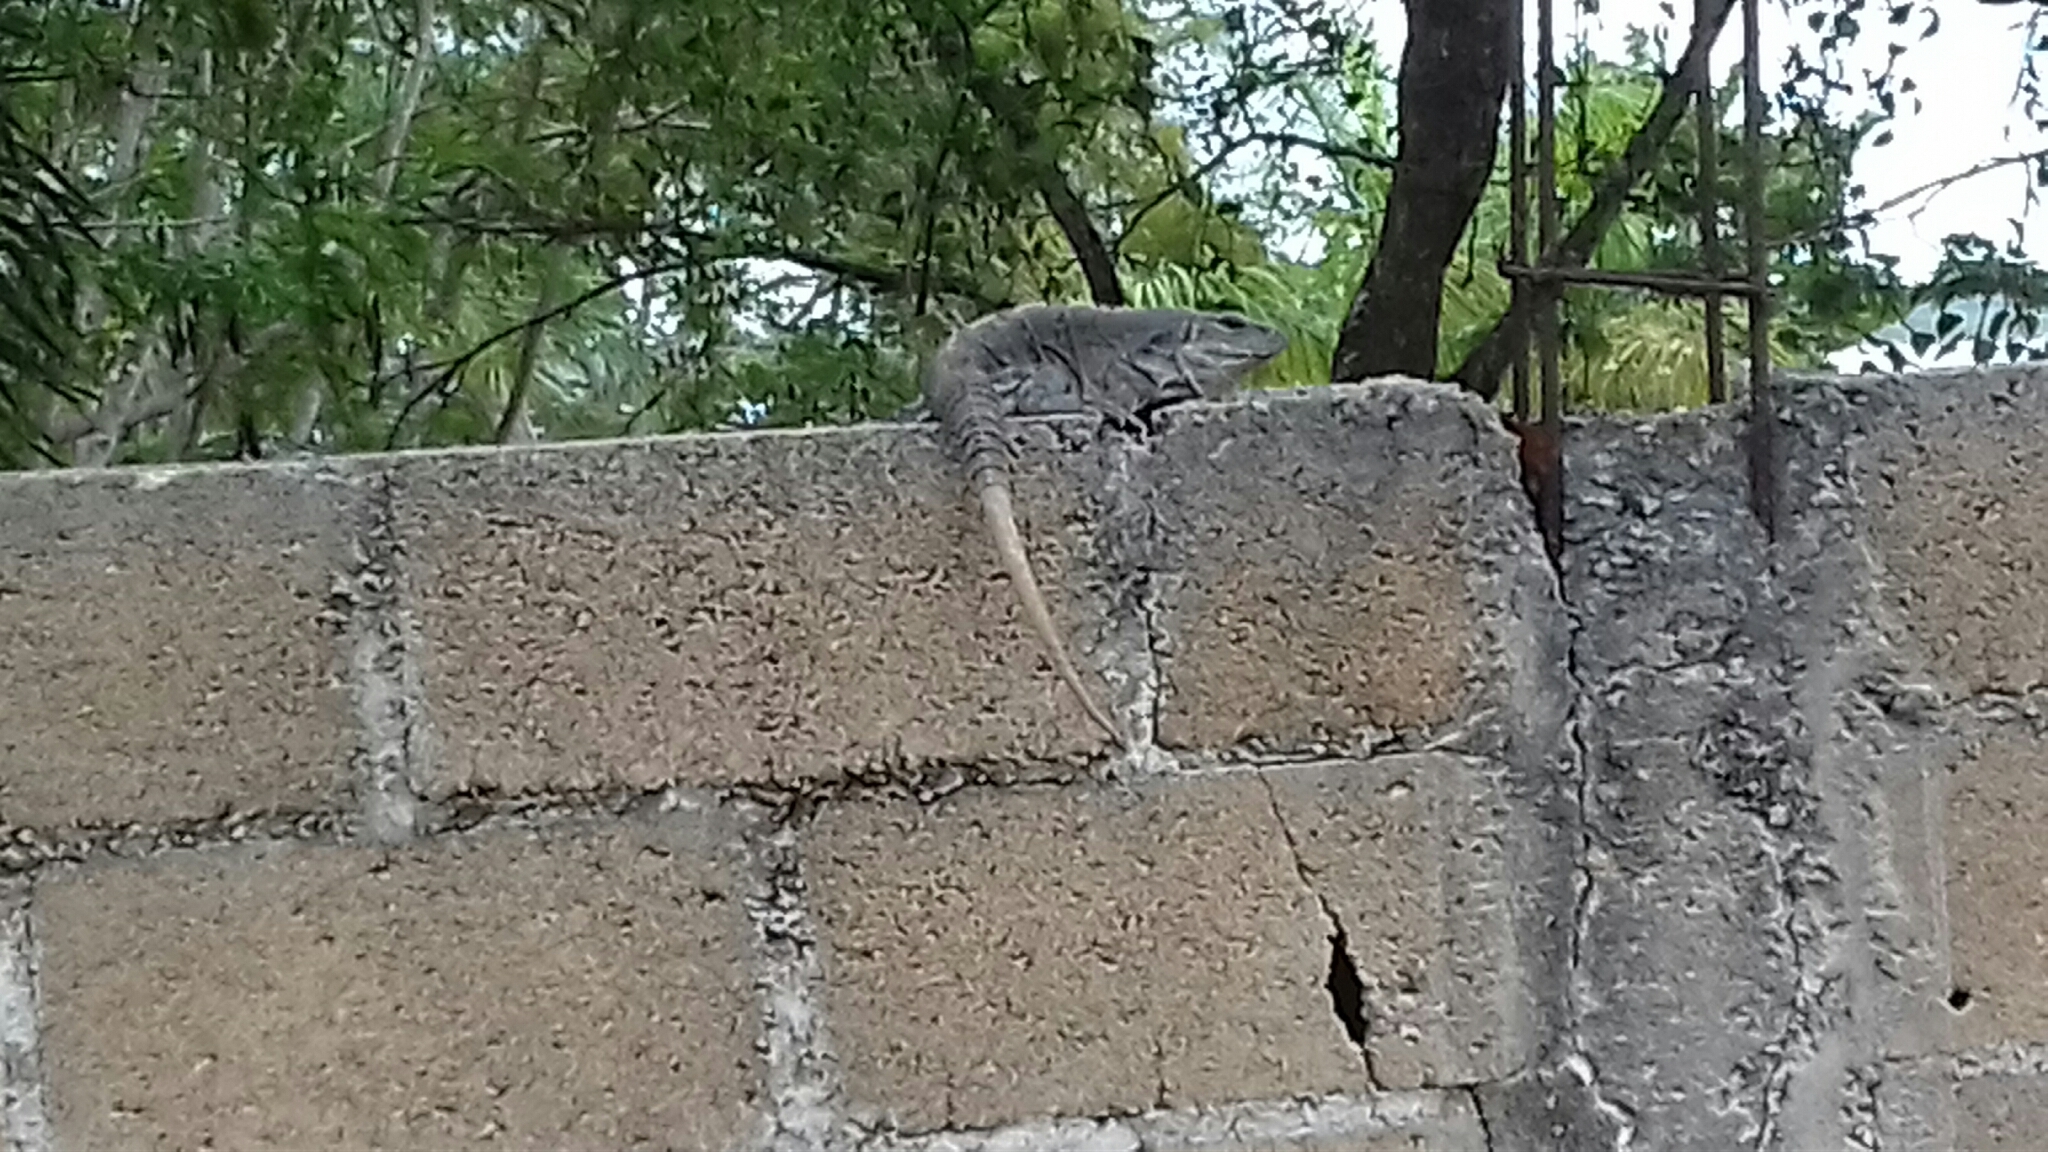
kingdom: Animalia
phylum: Chordata
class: Squamata
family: Iguanidae
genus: Ctenosaura
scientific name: Ctenosaura similis
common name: Black spiny-tailed iguana
